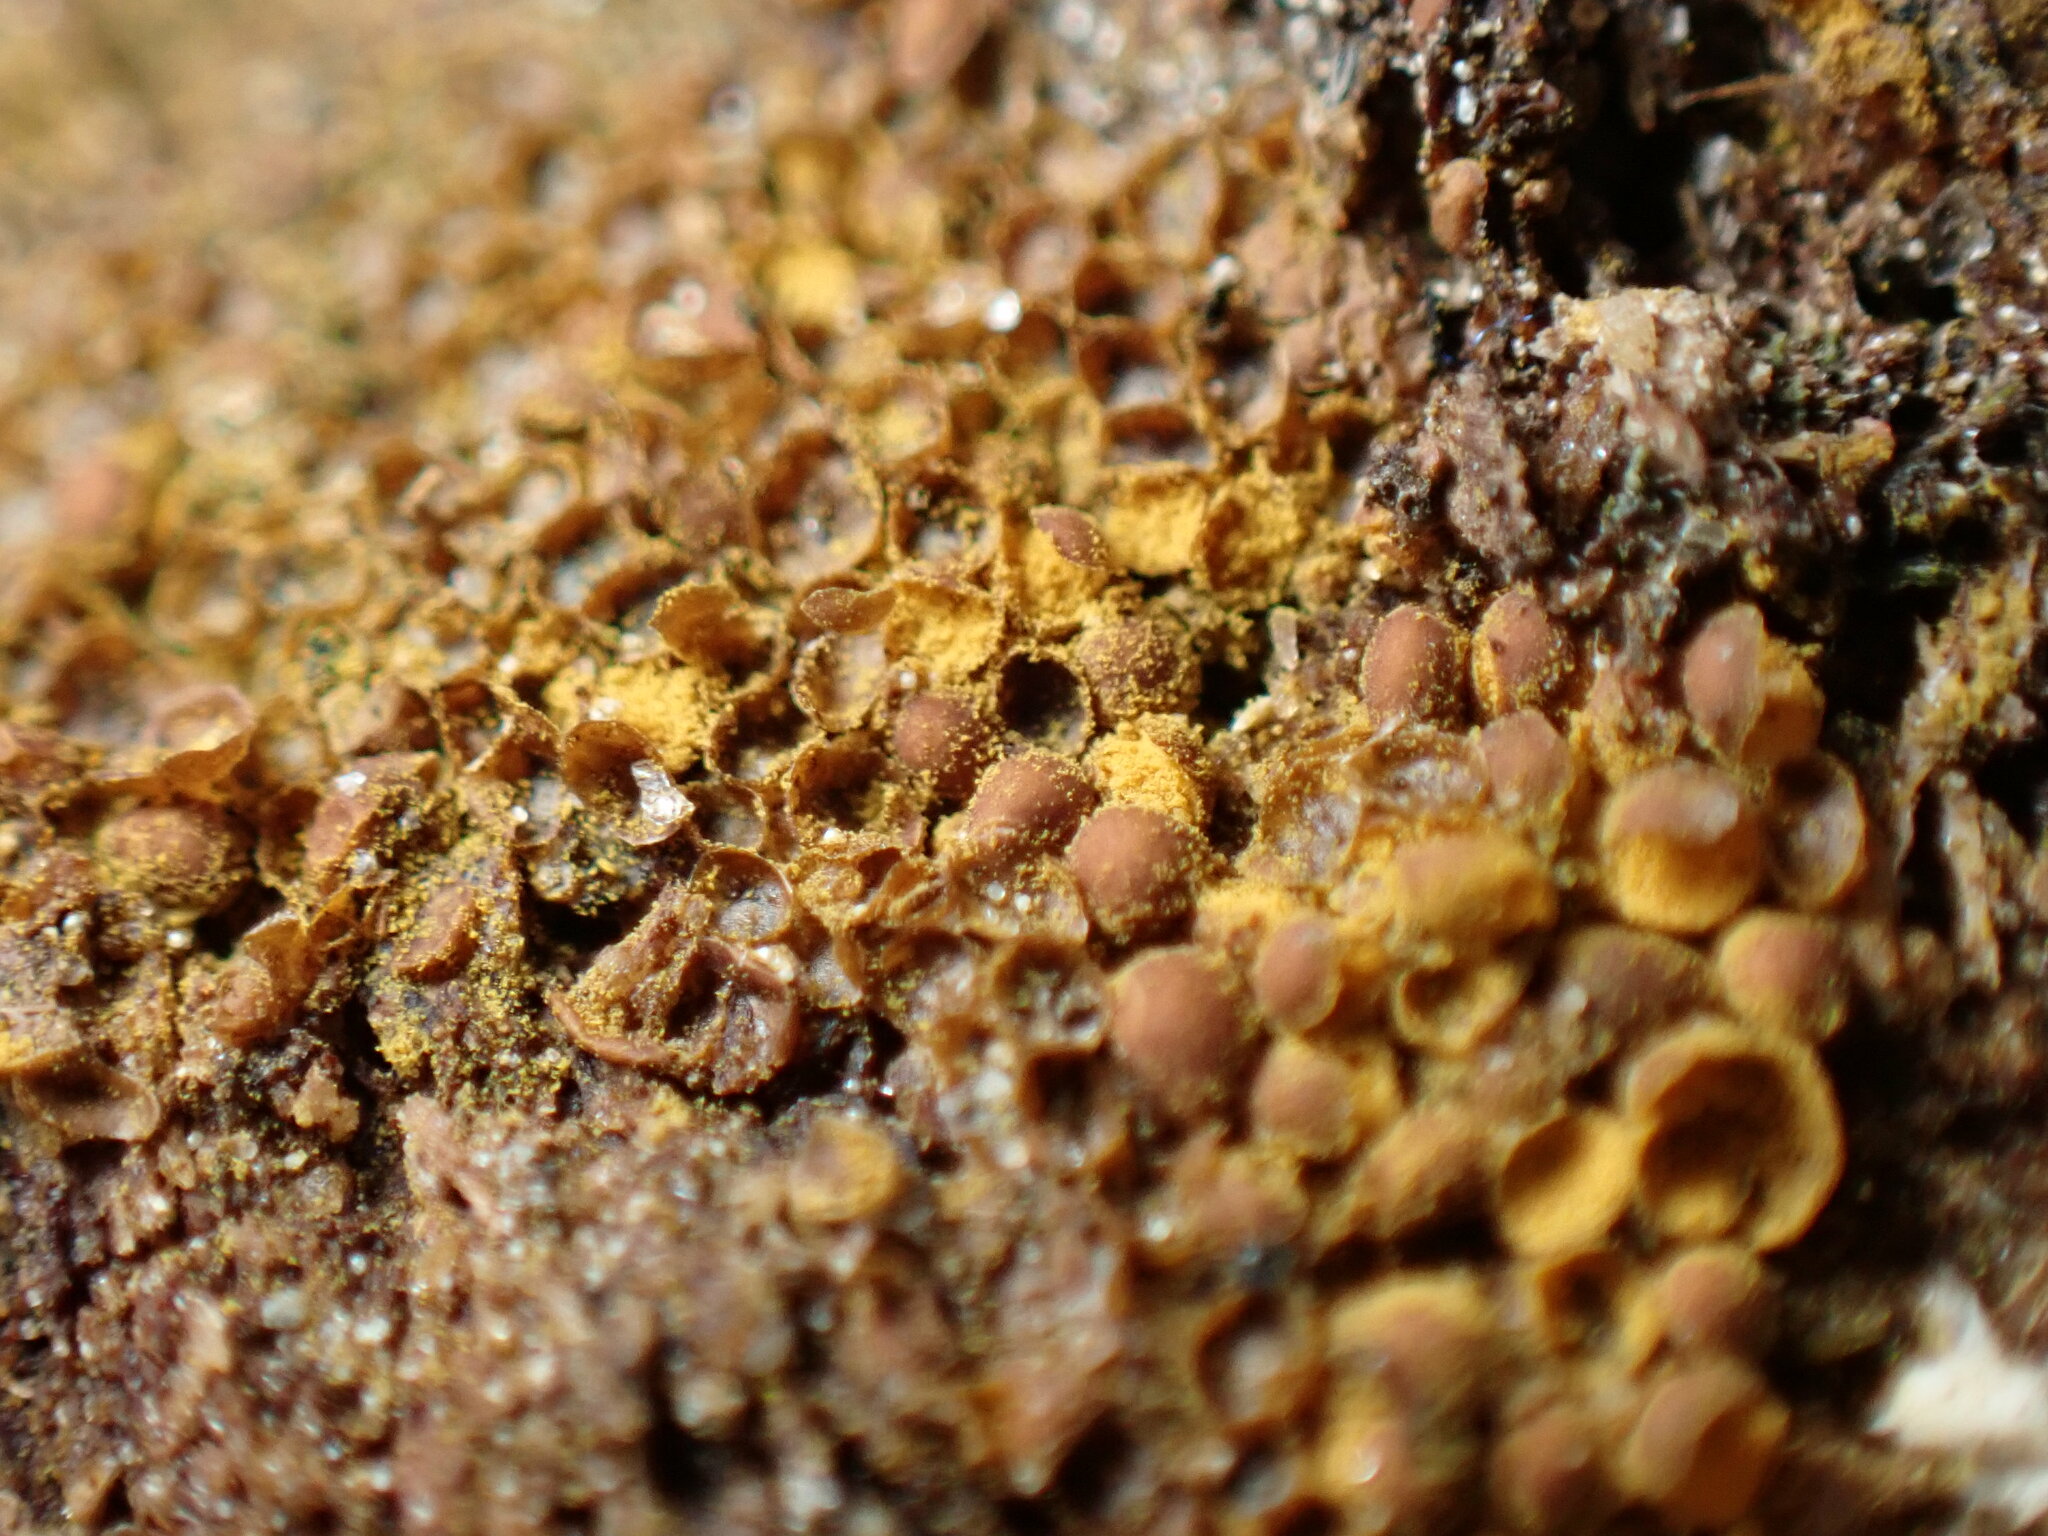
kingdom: Protozoa
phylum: Mycetozoa
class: Myxomycetes
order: Trichiales
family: Trichiaceae
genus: Perichaena
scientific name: Perichaena corticalis
